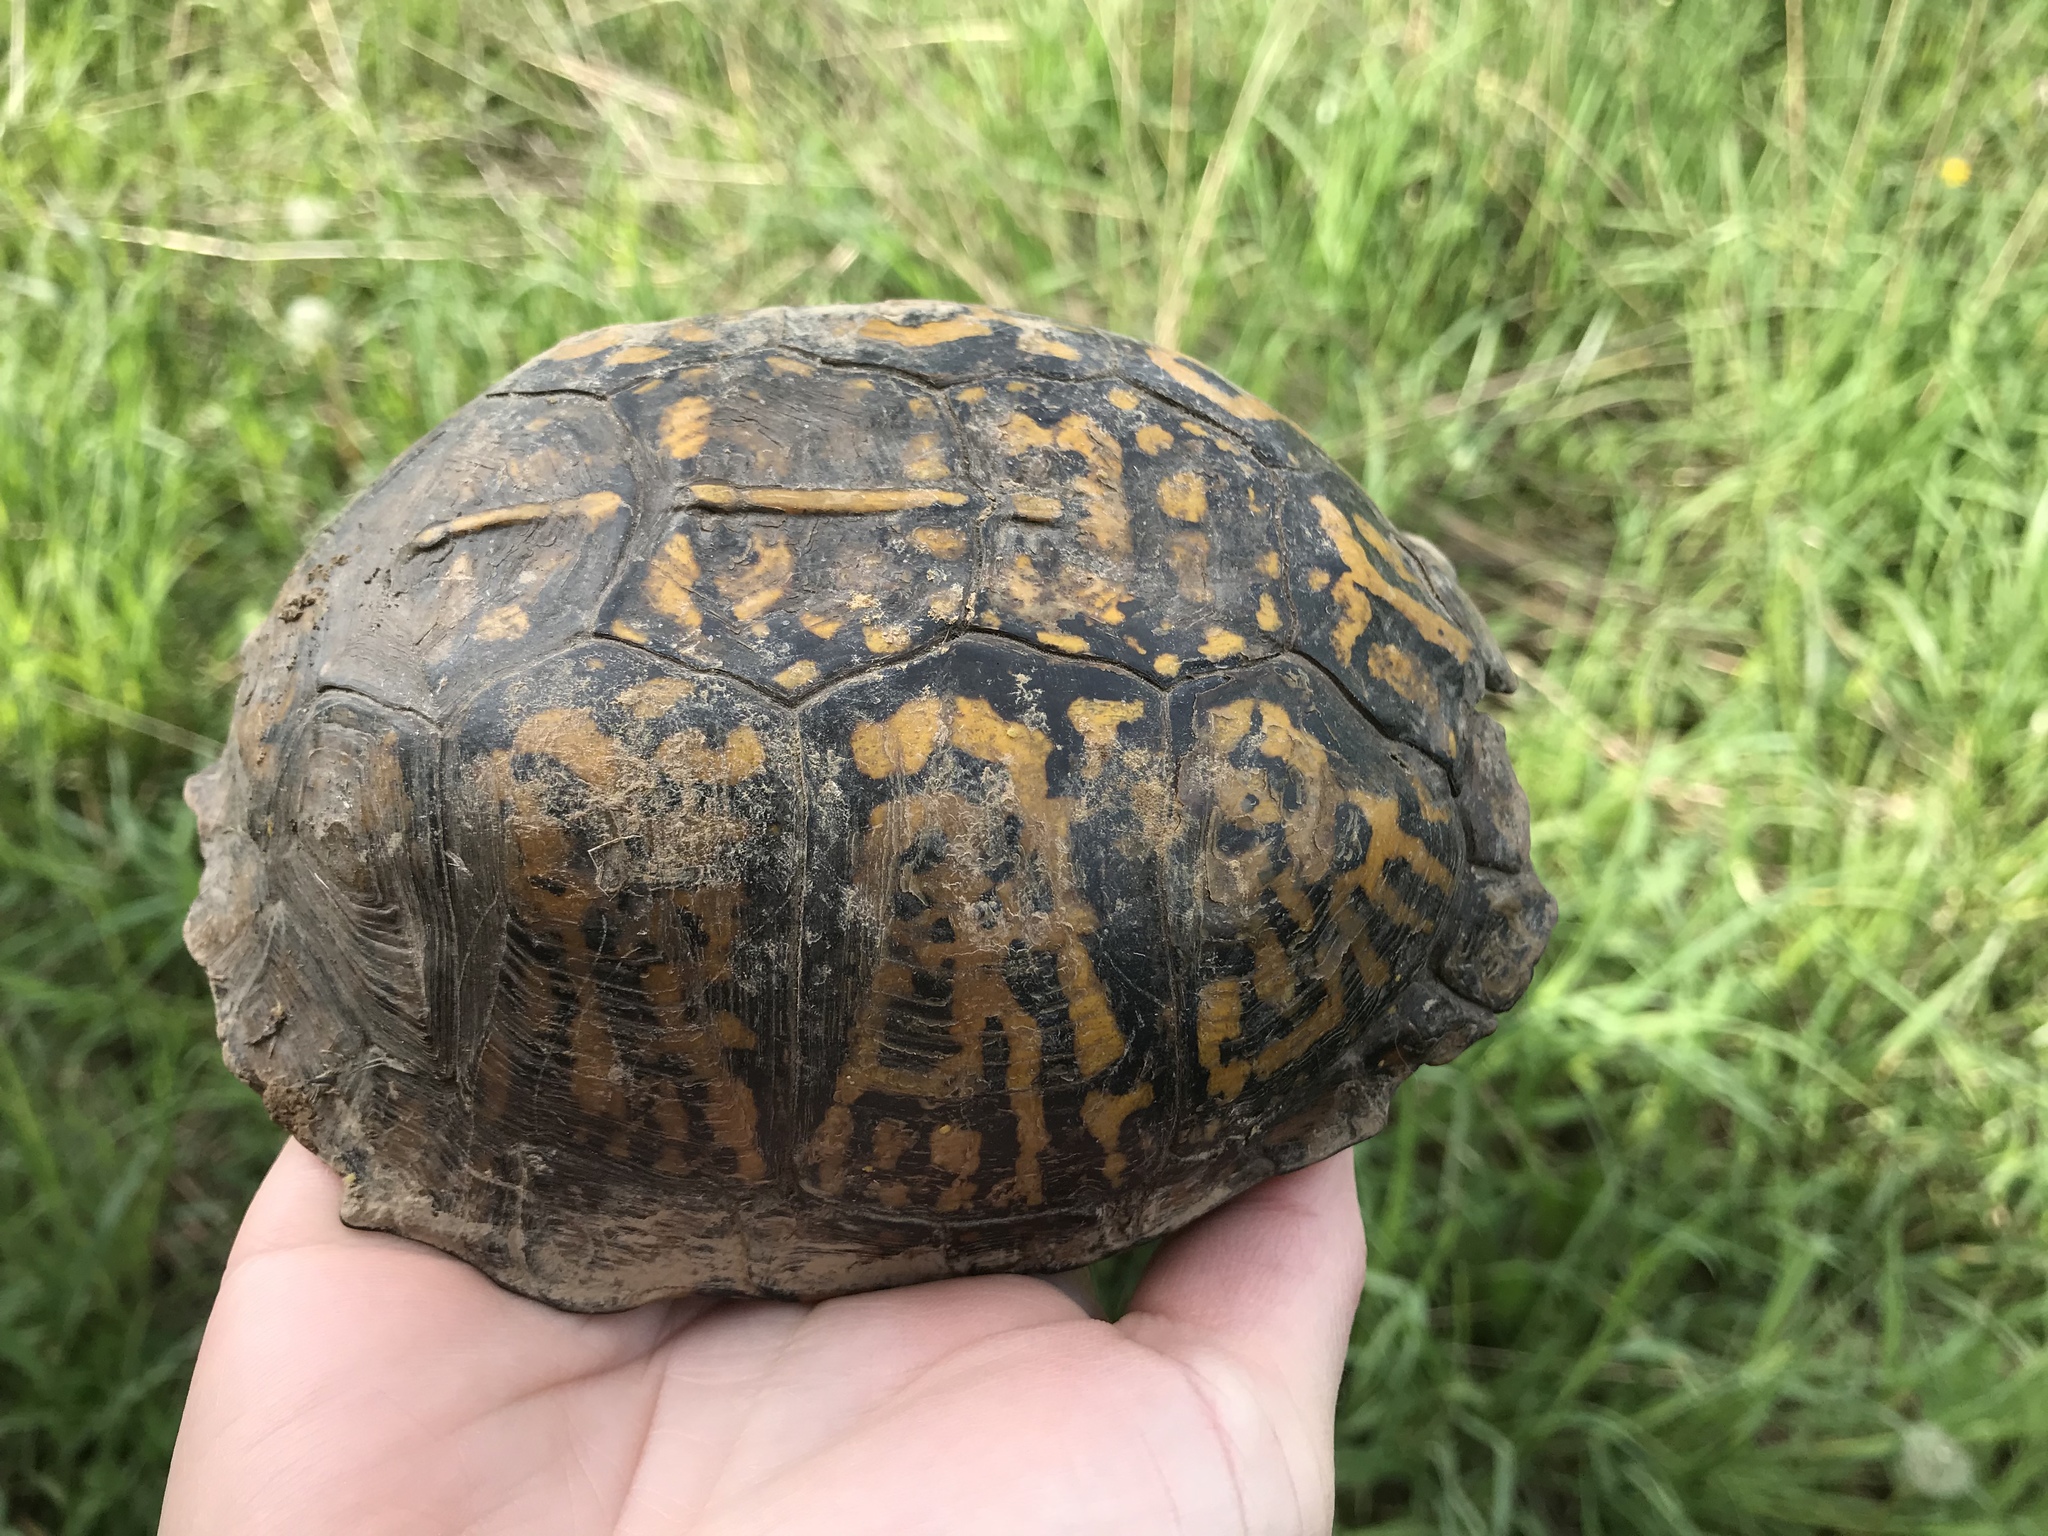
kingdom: Animalia
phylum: Chordata
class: Testudines
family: Emydidae
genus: Terrapene
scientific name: Terrapene carolina
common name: Common box turtle
